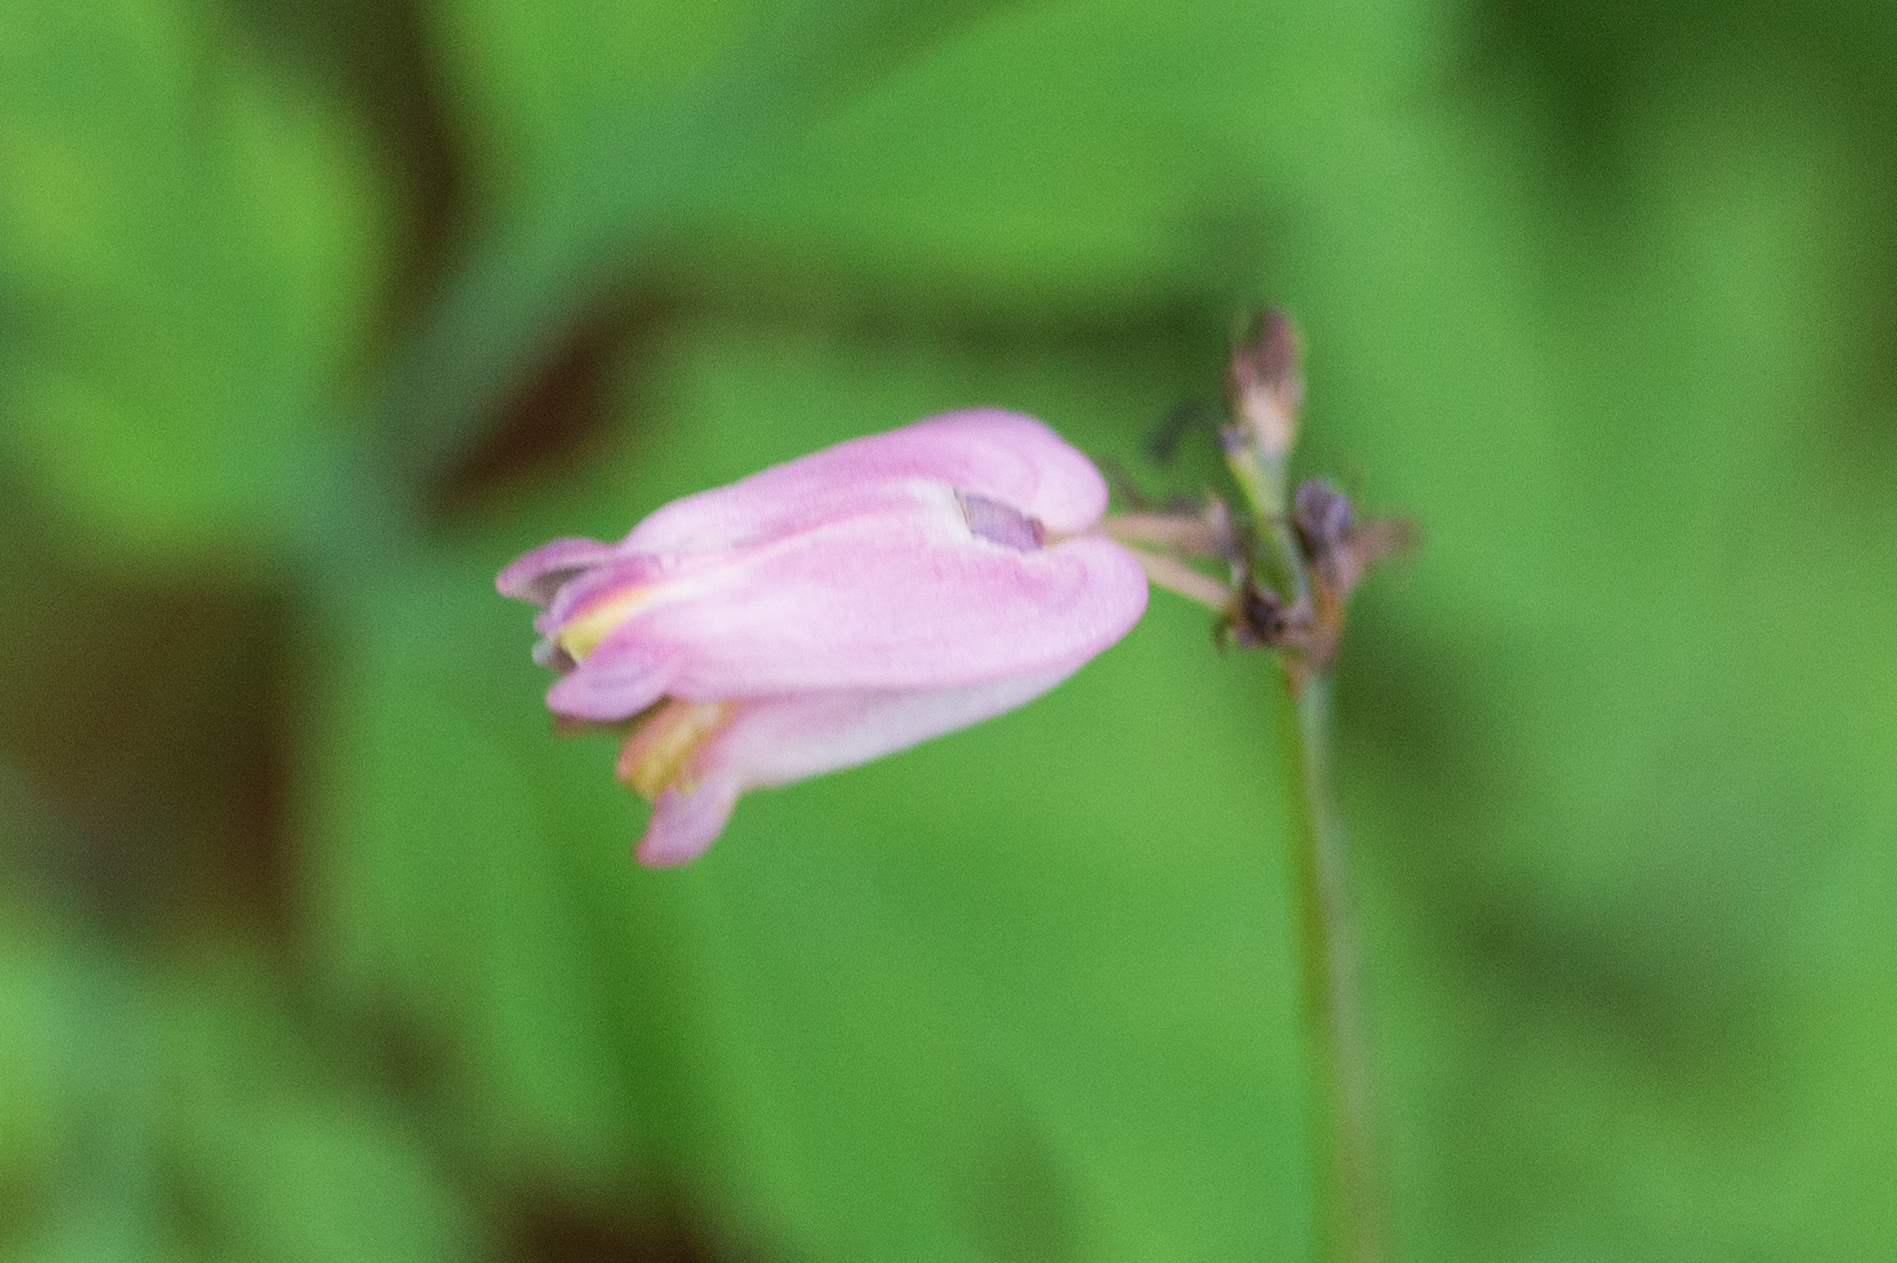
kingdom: Plantae
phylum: Tracheophyta
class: Magnoliopsida
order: Ranunculales
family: Papaveraceae
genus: Dicentra
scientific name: Dicentra formosa
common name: Bleeding-heart
